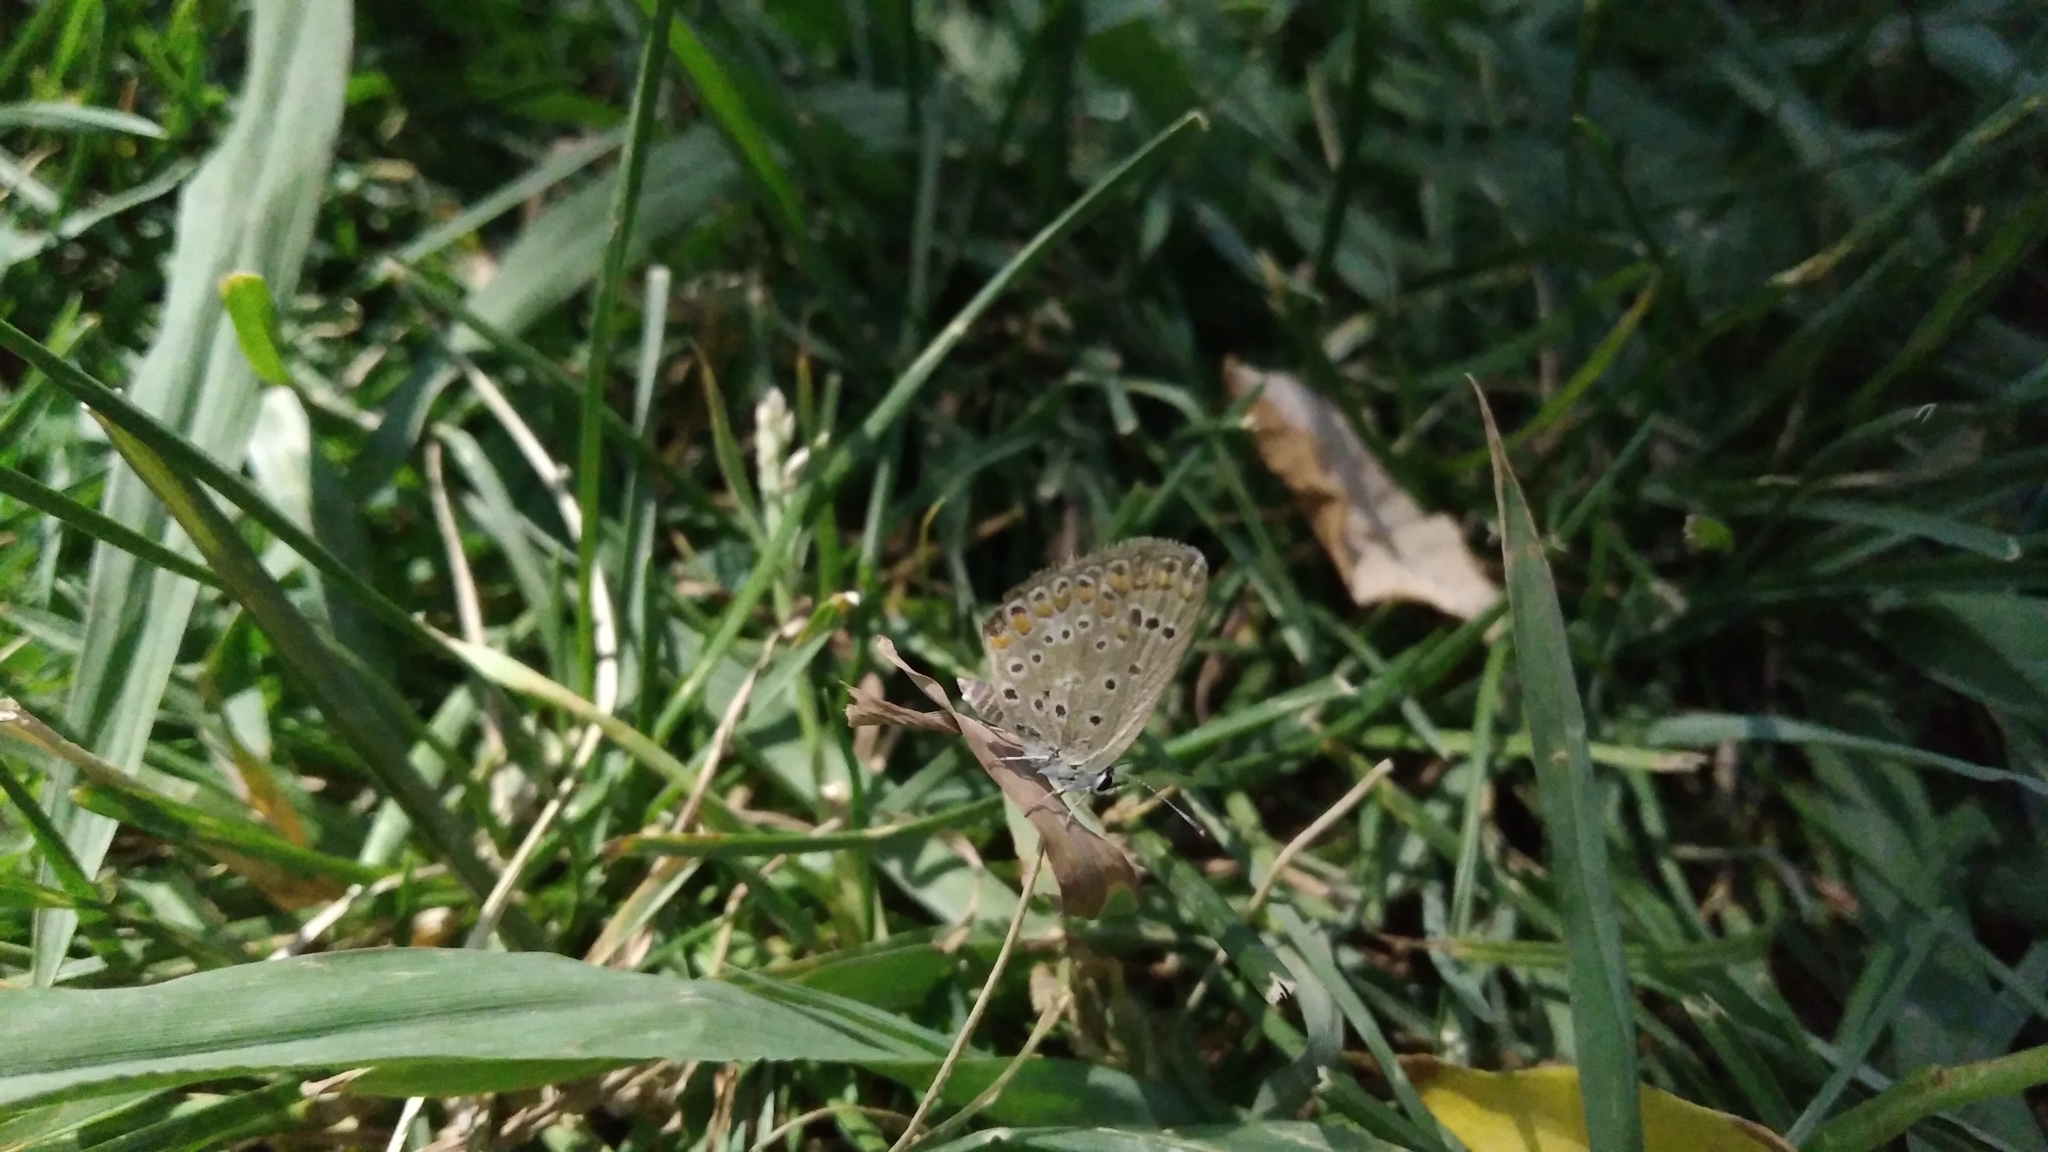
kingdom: Animalia
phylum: Arthropoda
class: Insecta
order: Lepidoptera
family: Lycaenidae
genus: Polyommatus
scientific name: Polyommatus icarus
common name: Common blue
